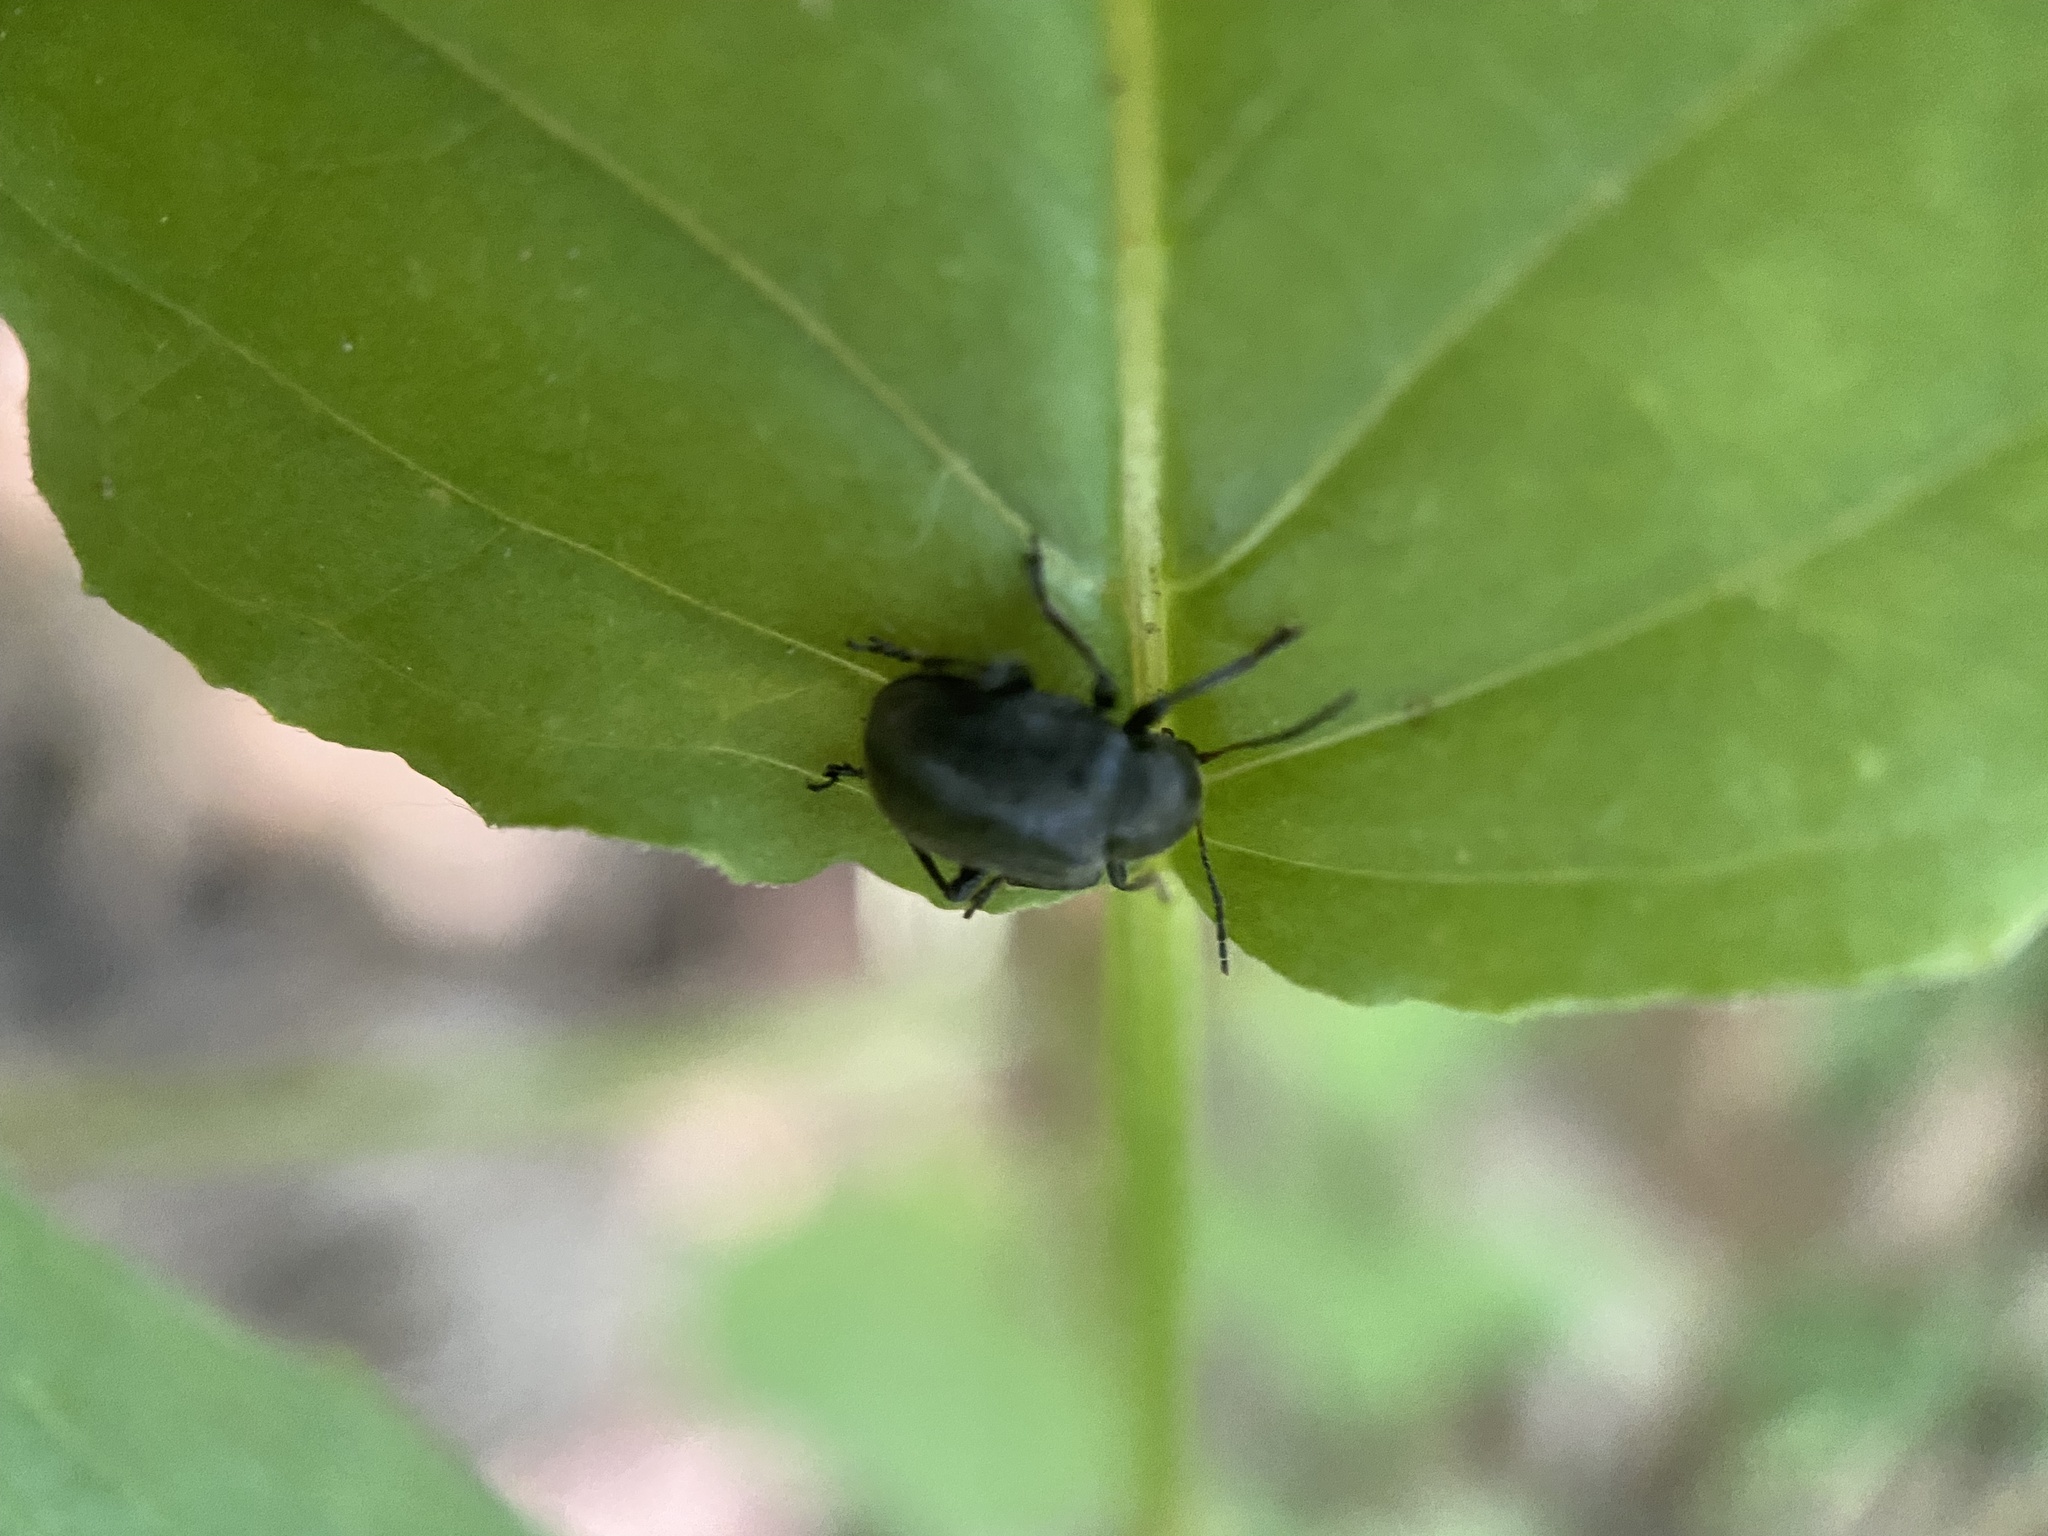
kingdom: Animalia
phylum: Arthropoda
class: Insecta
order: Coleoptera
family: Chrysomelidae
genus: Bromius
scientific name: Bromius obscurus
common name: Western grape rootworm
